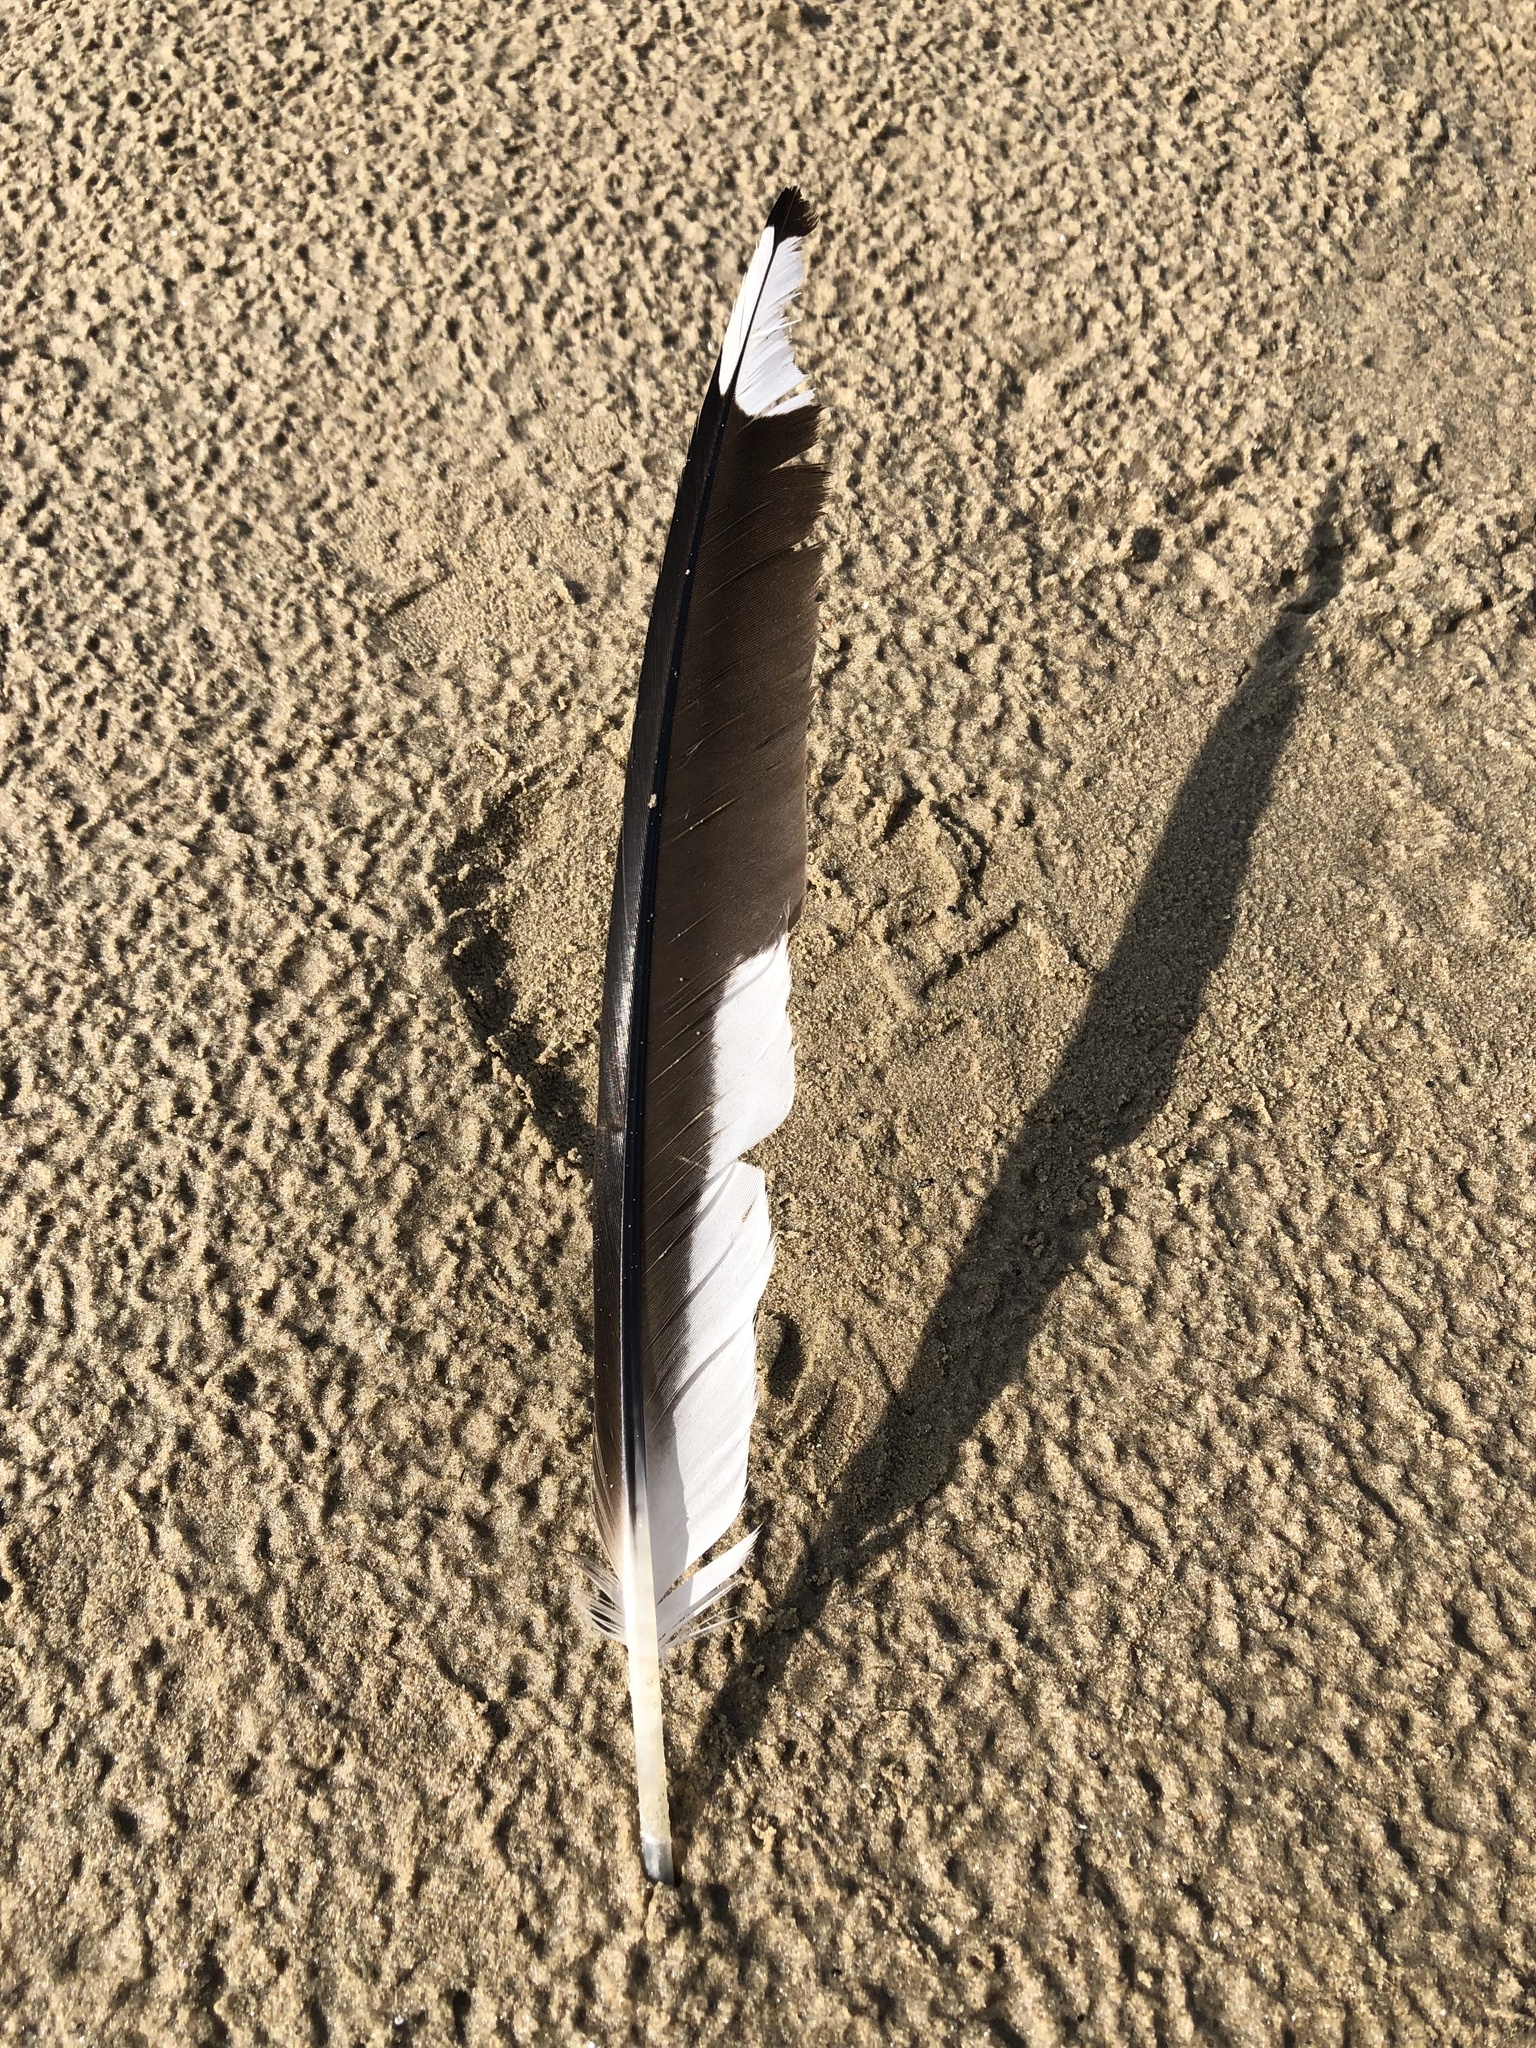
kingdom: Animalia
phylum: Chordata
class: Aves
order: Charadriiformes
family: Laridae
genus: Larus
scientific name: Larus delawarensis
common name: Ring-billed gull
